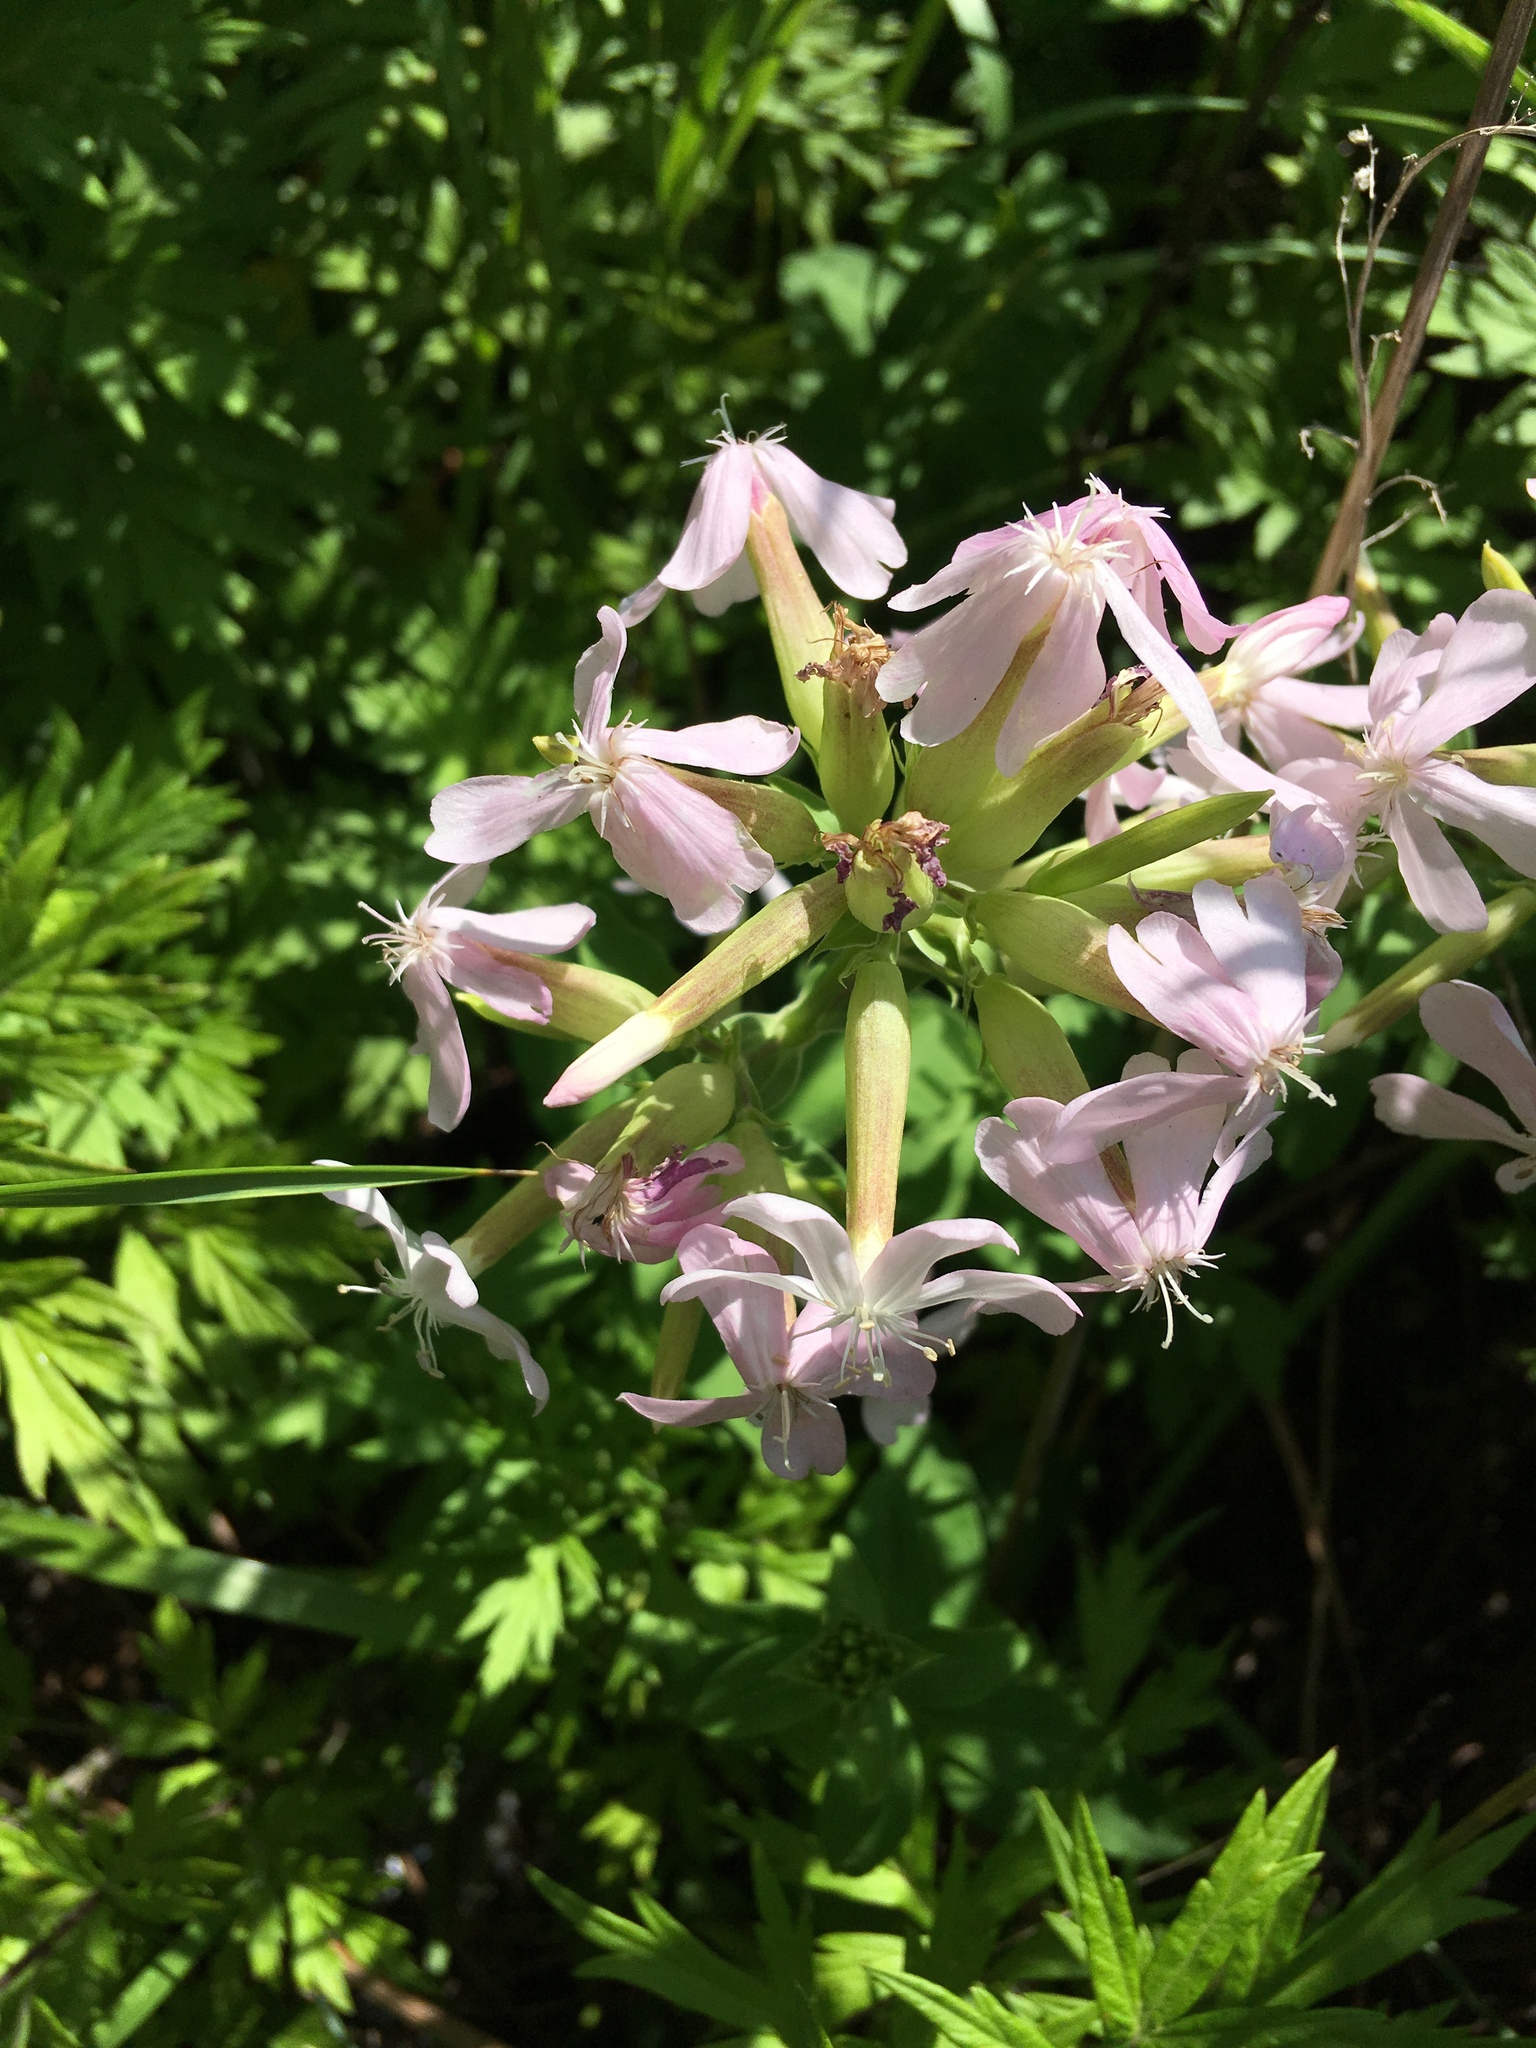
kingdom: Plantae
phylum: Tracheophyta
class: Magnoliopsida
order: Caryophyllales
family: Caryophyllaceae
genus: Saponaria
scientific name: Saponaria officinalis
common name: Soapwort
